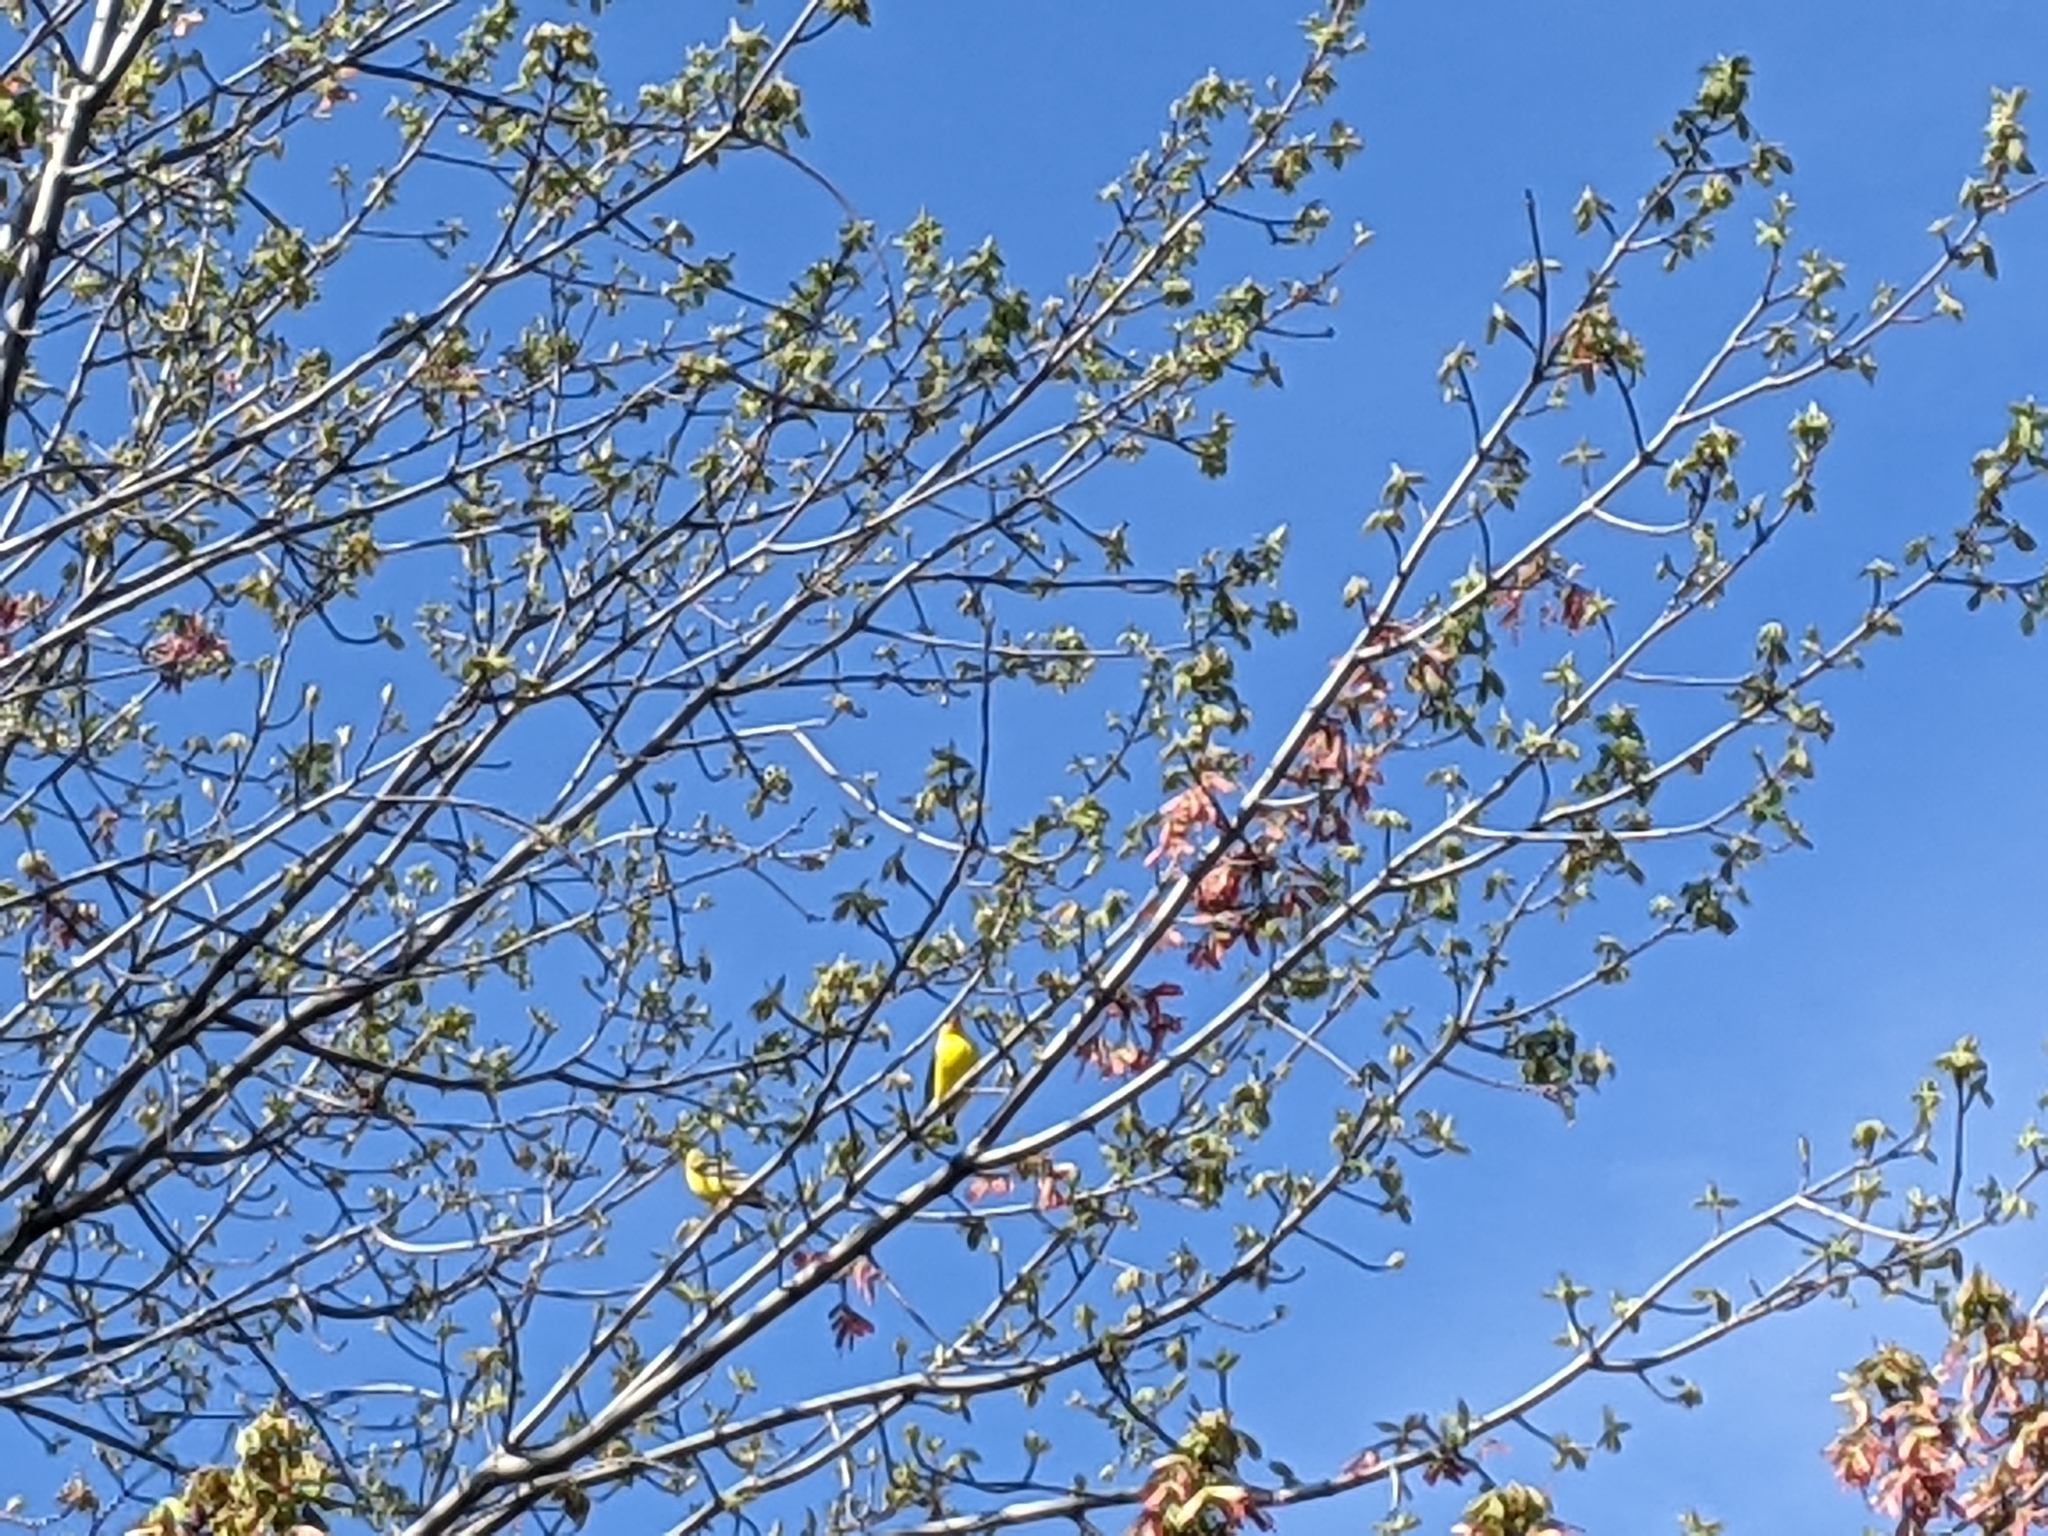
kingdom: Animalia
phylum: Chordata
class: Aves
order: Passeriformes
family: Fringillidae
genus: Spinus
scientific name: Spinus tristis
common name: American goldfinch
